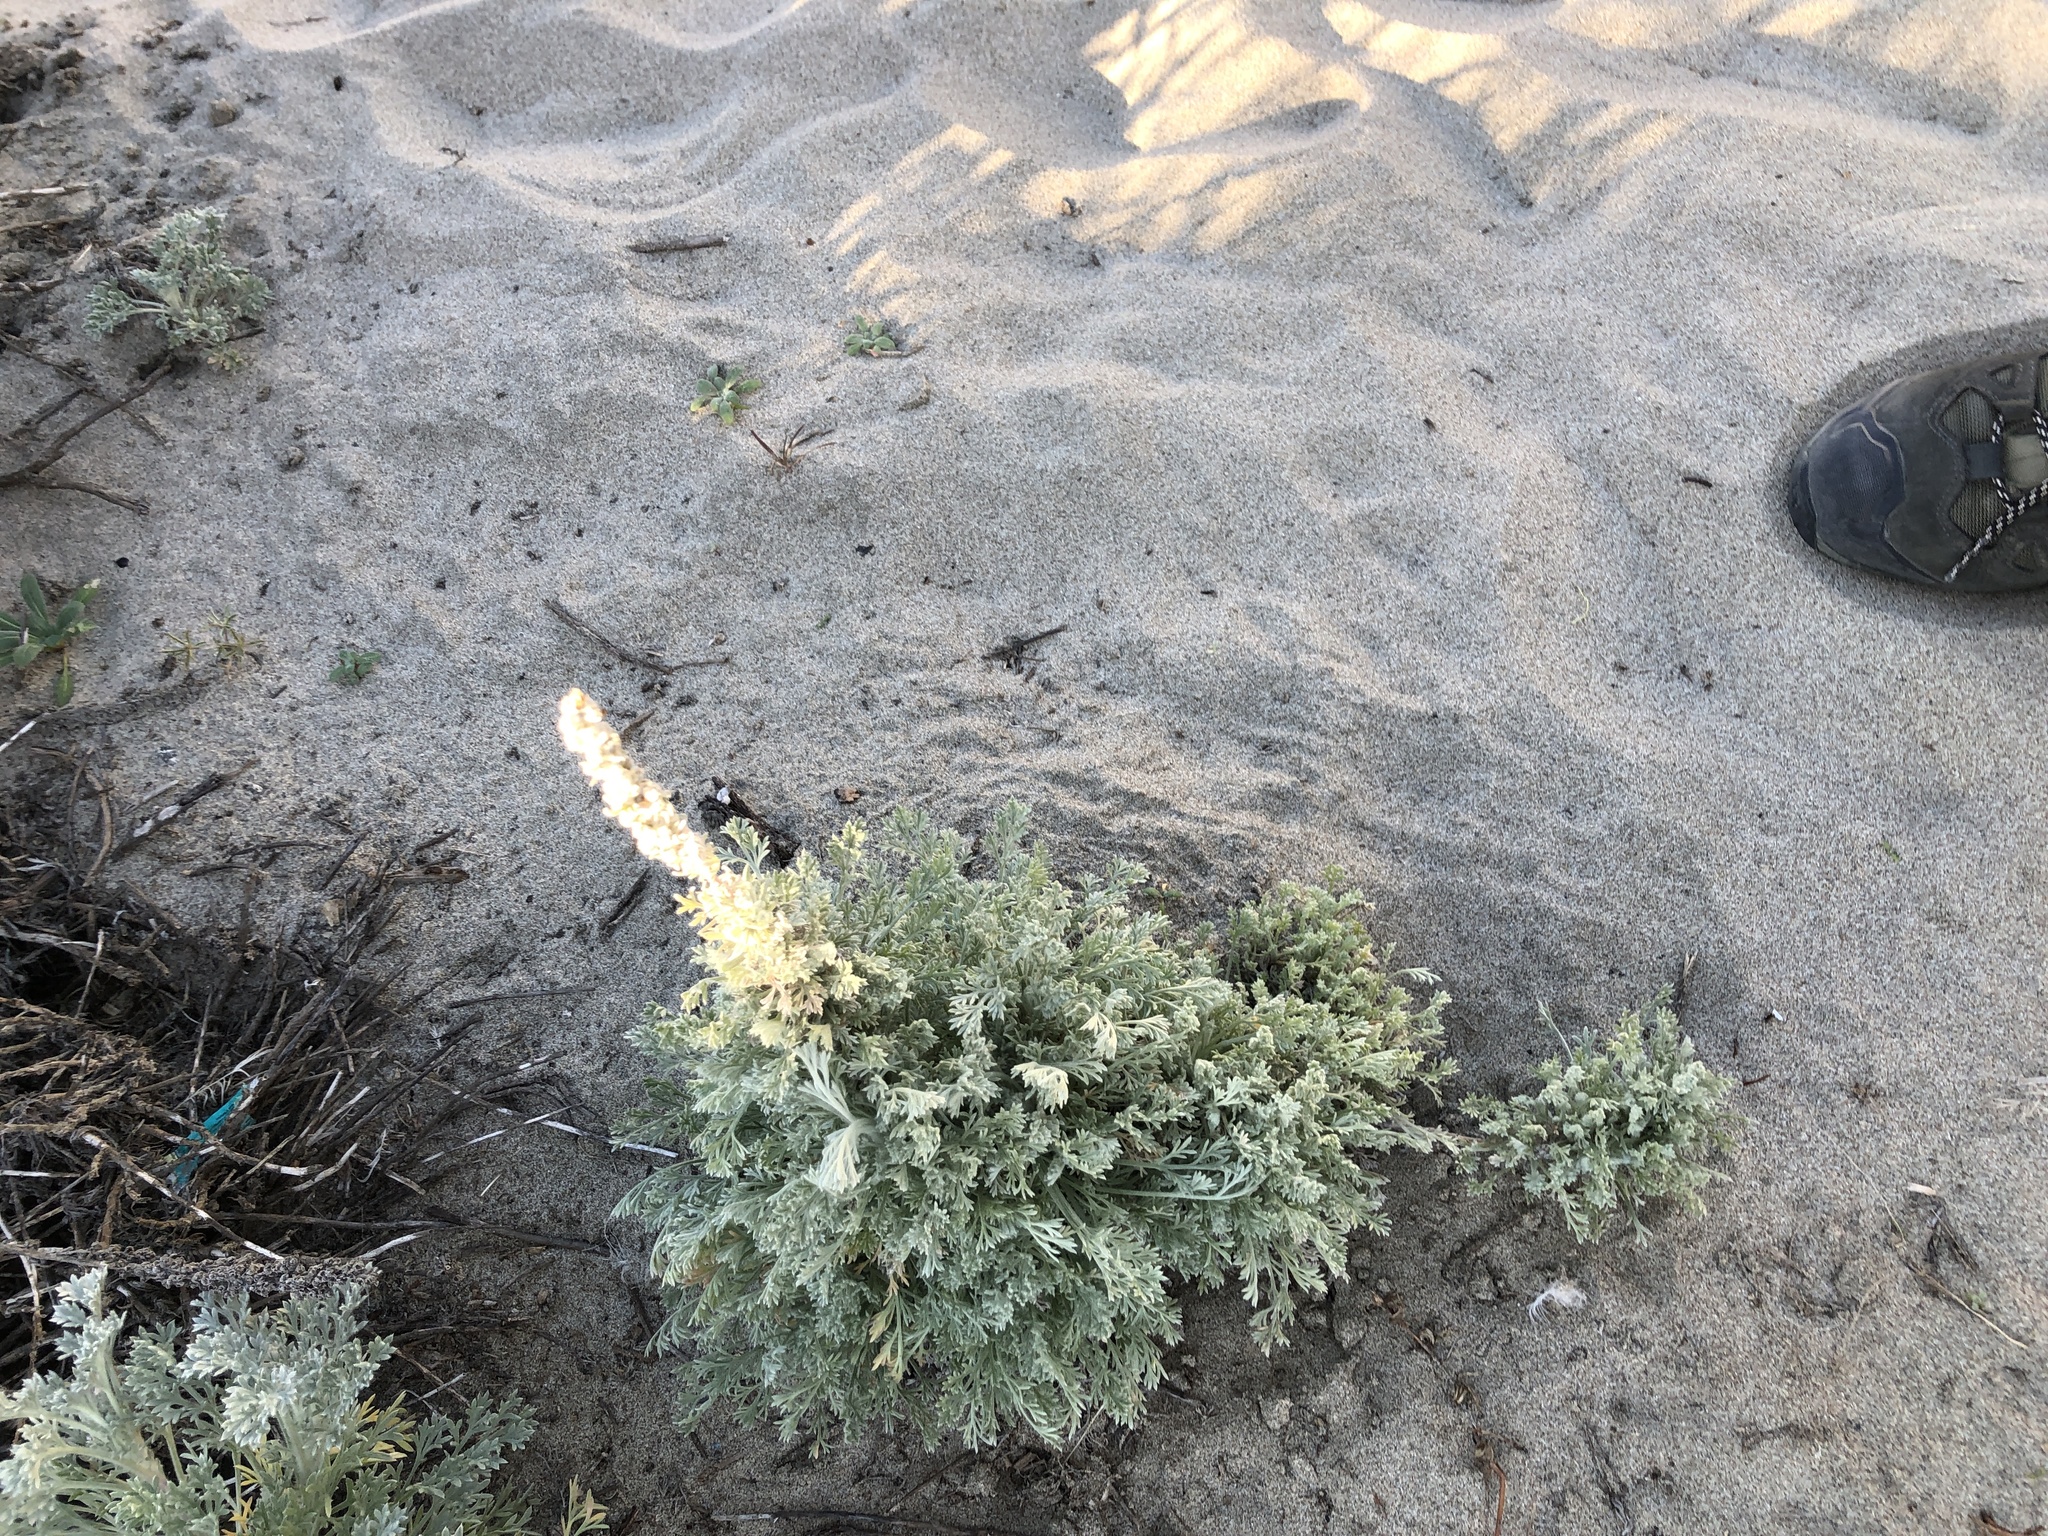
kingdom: Plantae
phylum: Tracheophyta
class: Magnoliopsida
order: Asterales
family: Asteraceae
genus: Artemisia
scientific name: Artemisia pycnocephala
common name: Coastal sagewort
